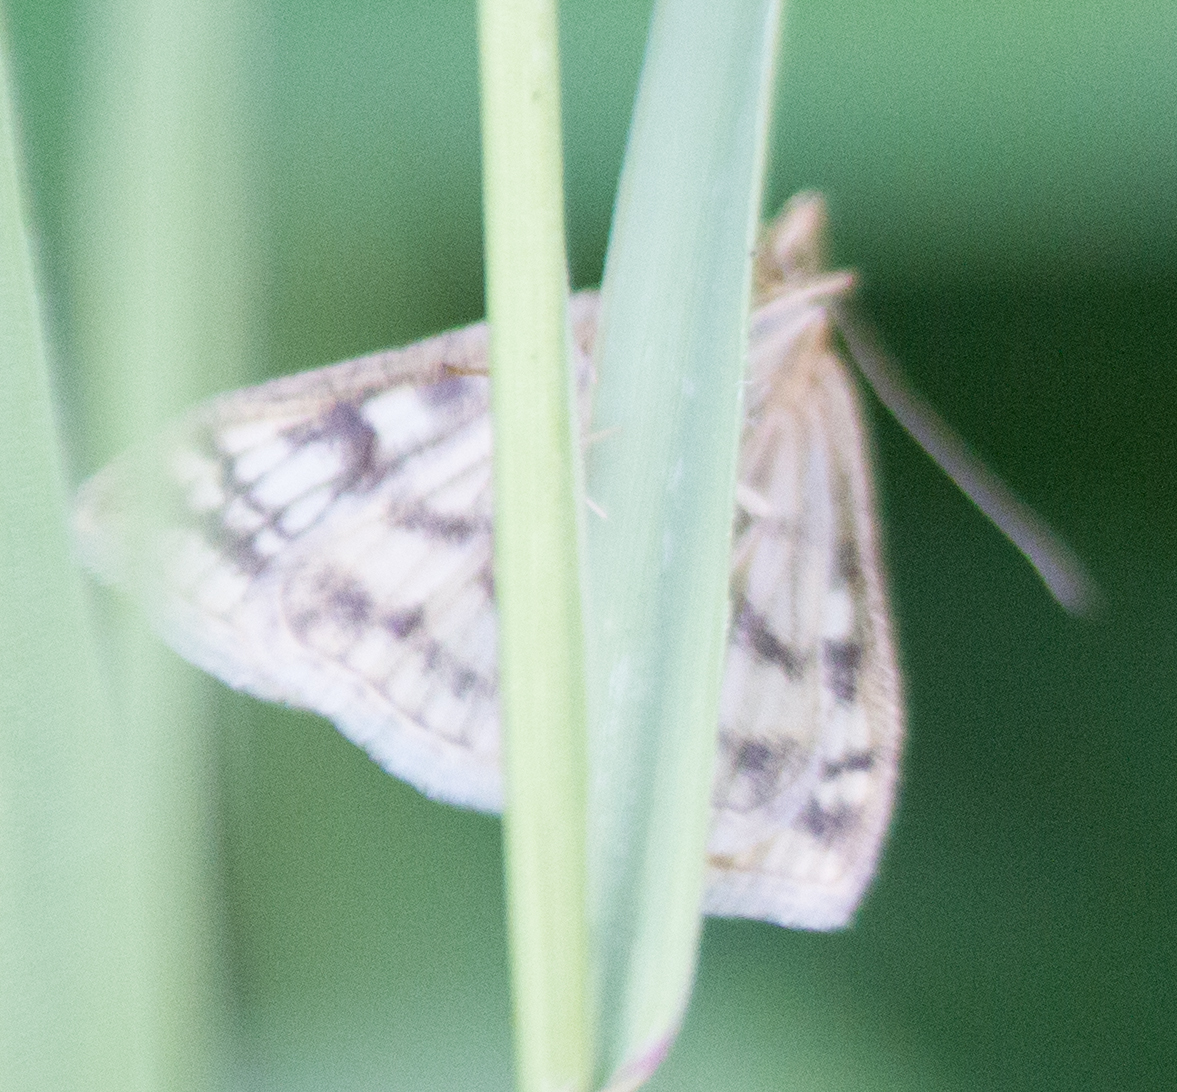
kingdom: Animalia
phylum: Arthropoda
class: Insecta
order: Lepidoptera
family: Crambidae
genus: Sitochroa
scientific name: Sitochroa verticalis
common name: Lesser pearl
